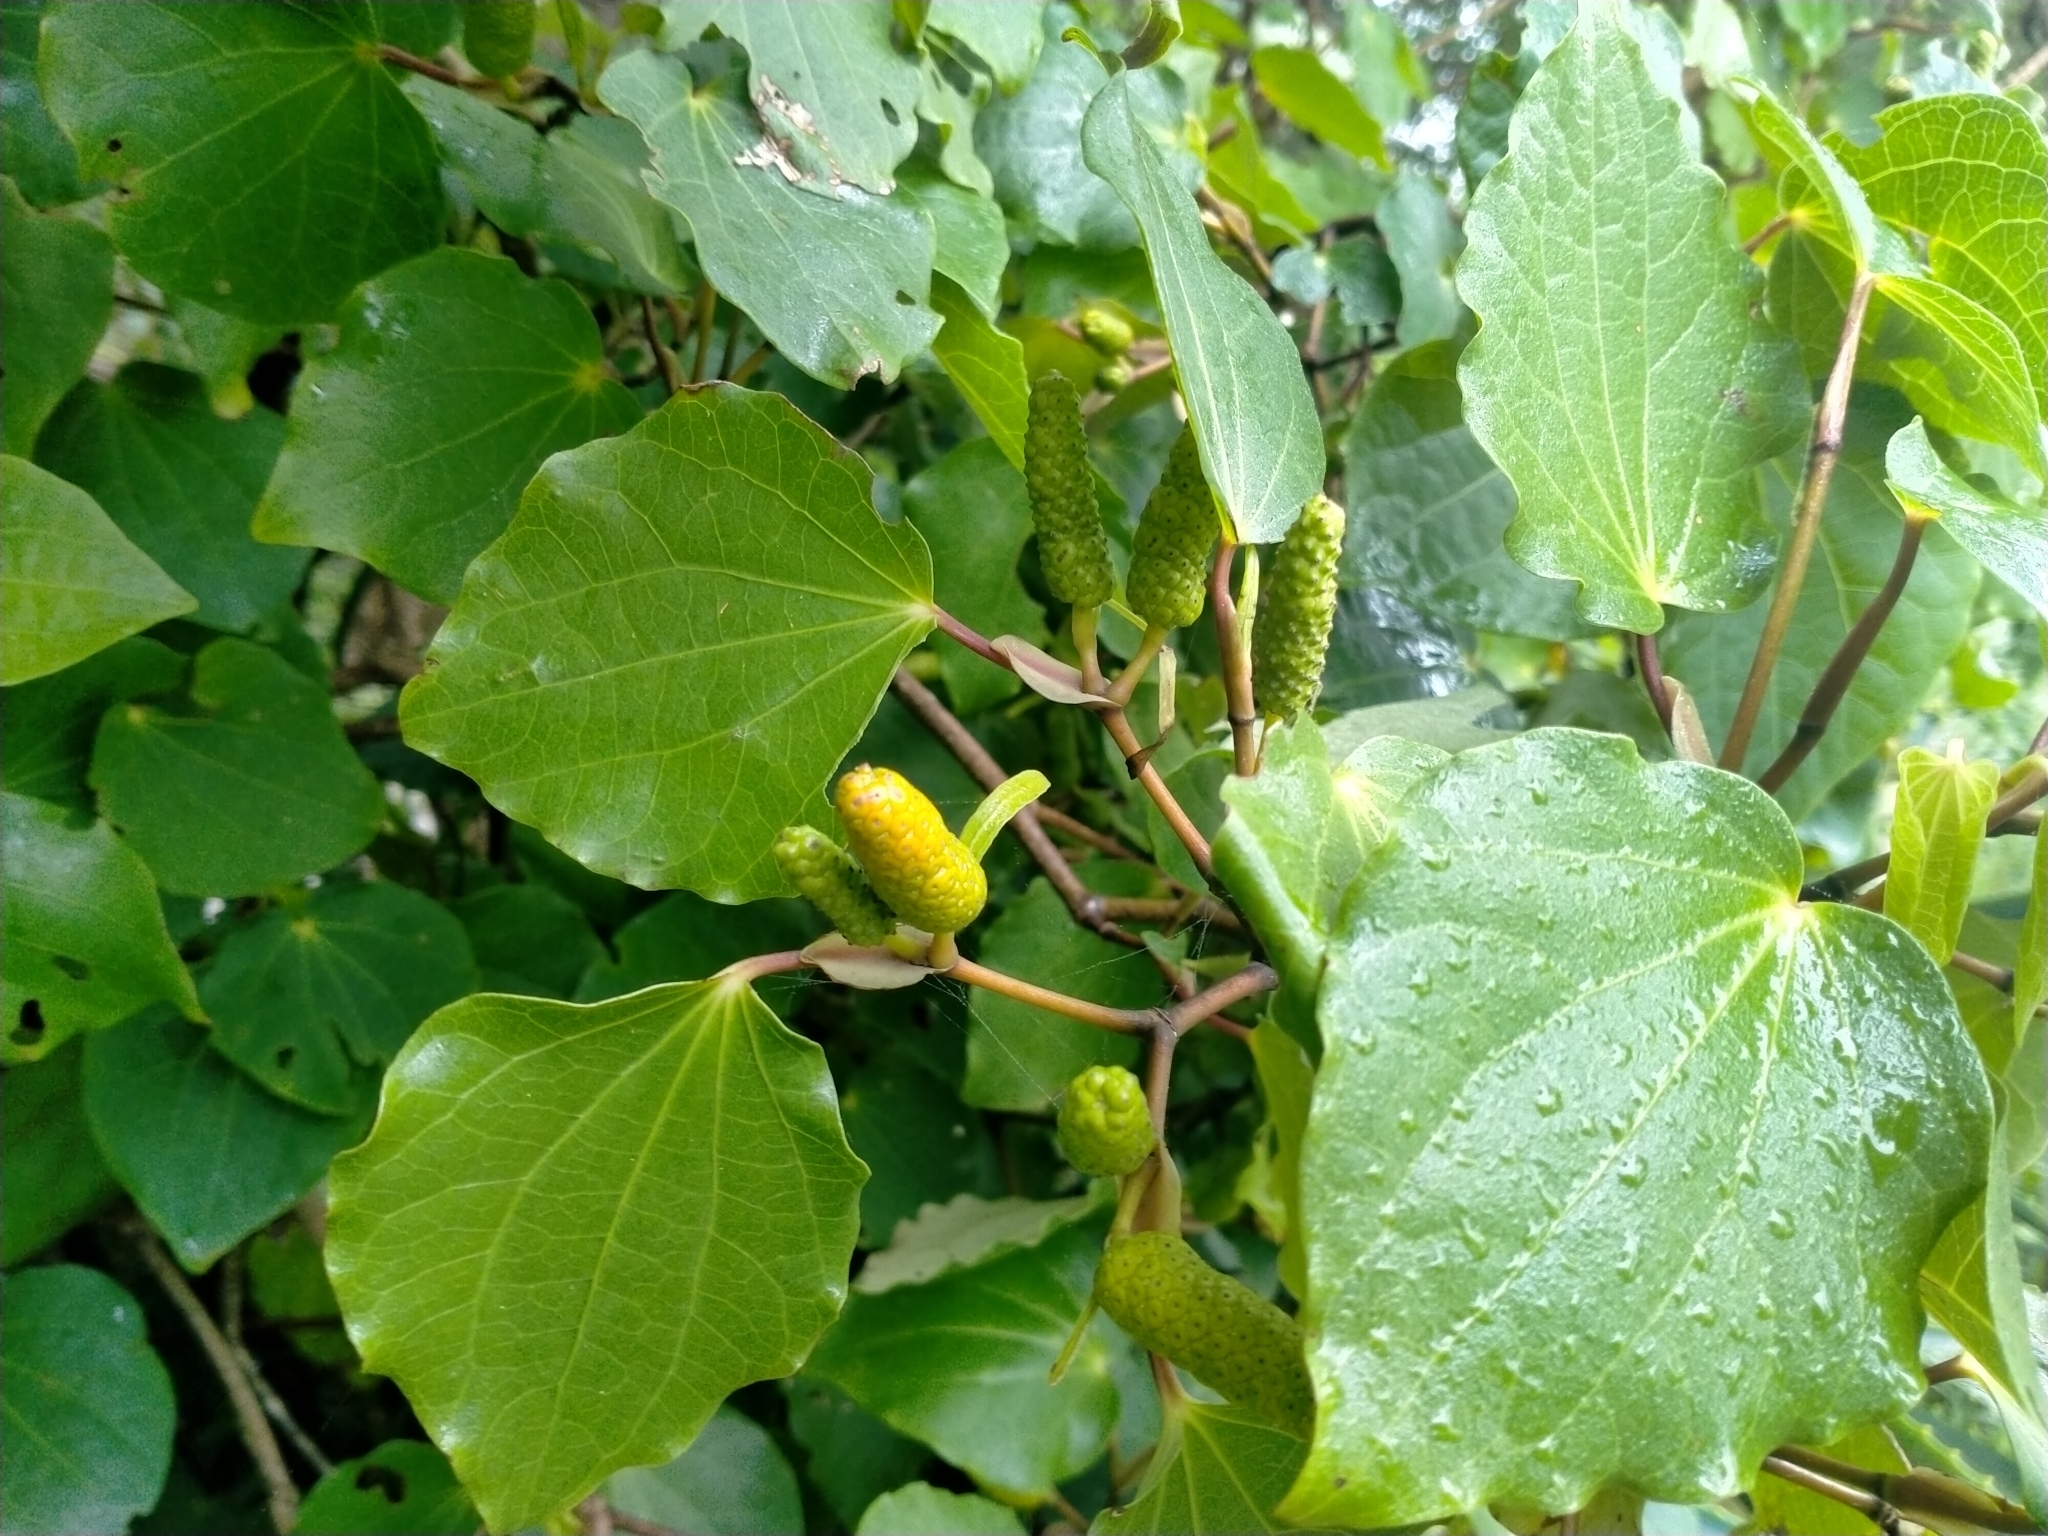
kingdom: Plantae
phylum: Tracheophyta
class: Magnoliopsida
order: Piperales
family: Piperaceae
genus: Macropiper
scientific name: Macropiper excelsum
